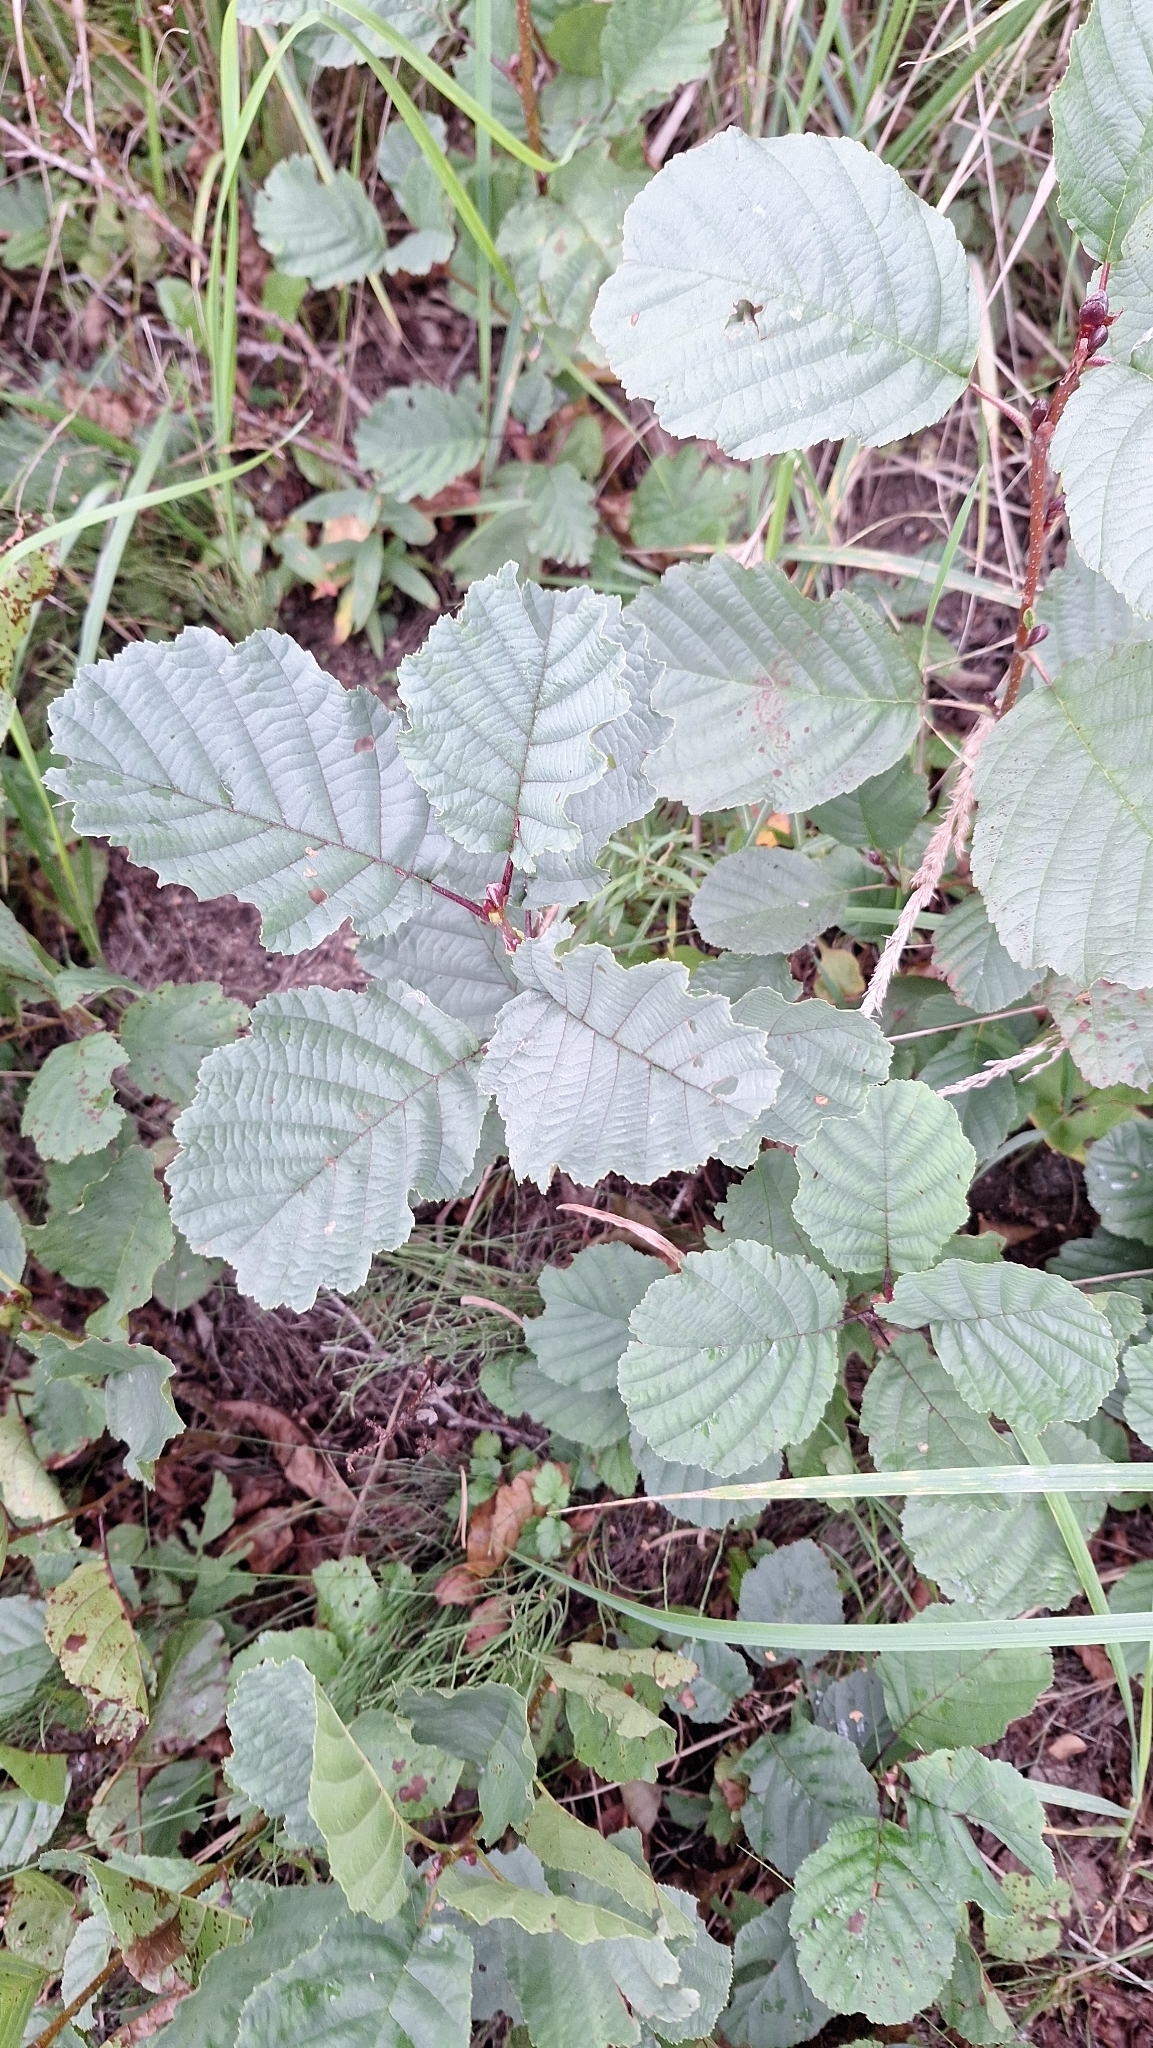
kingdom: Plantae
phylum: Tracheophyta
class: Magnoliopsida
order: Fagales
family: Betulaceae
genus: Alnus
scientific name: Alnus glutinosa
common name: Black alder
